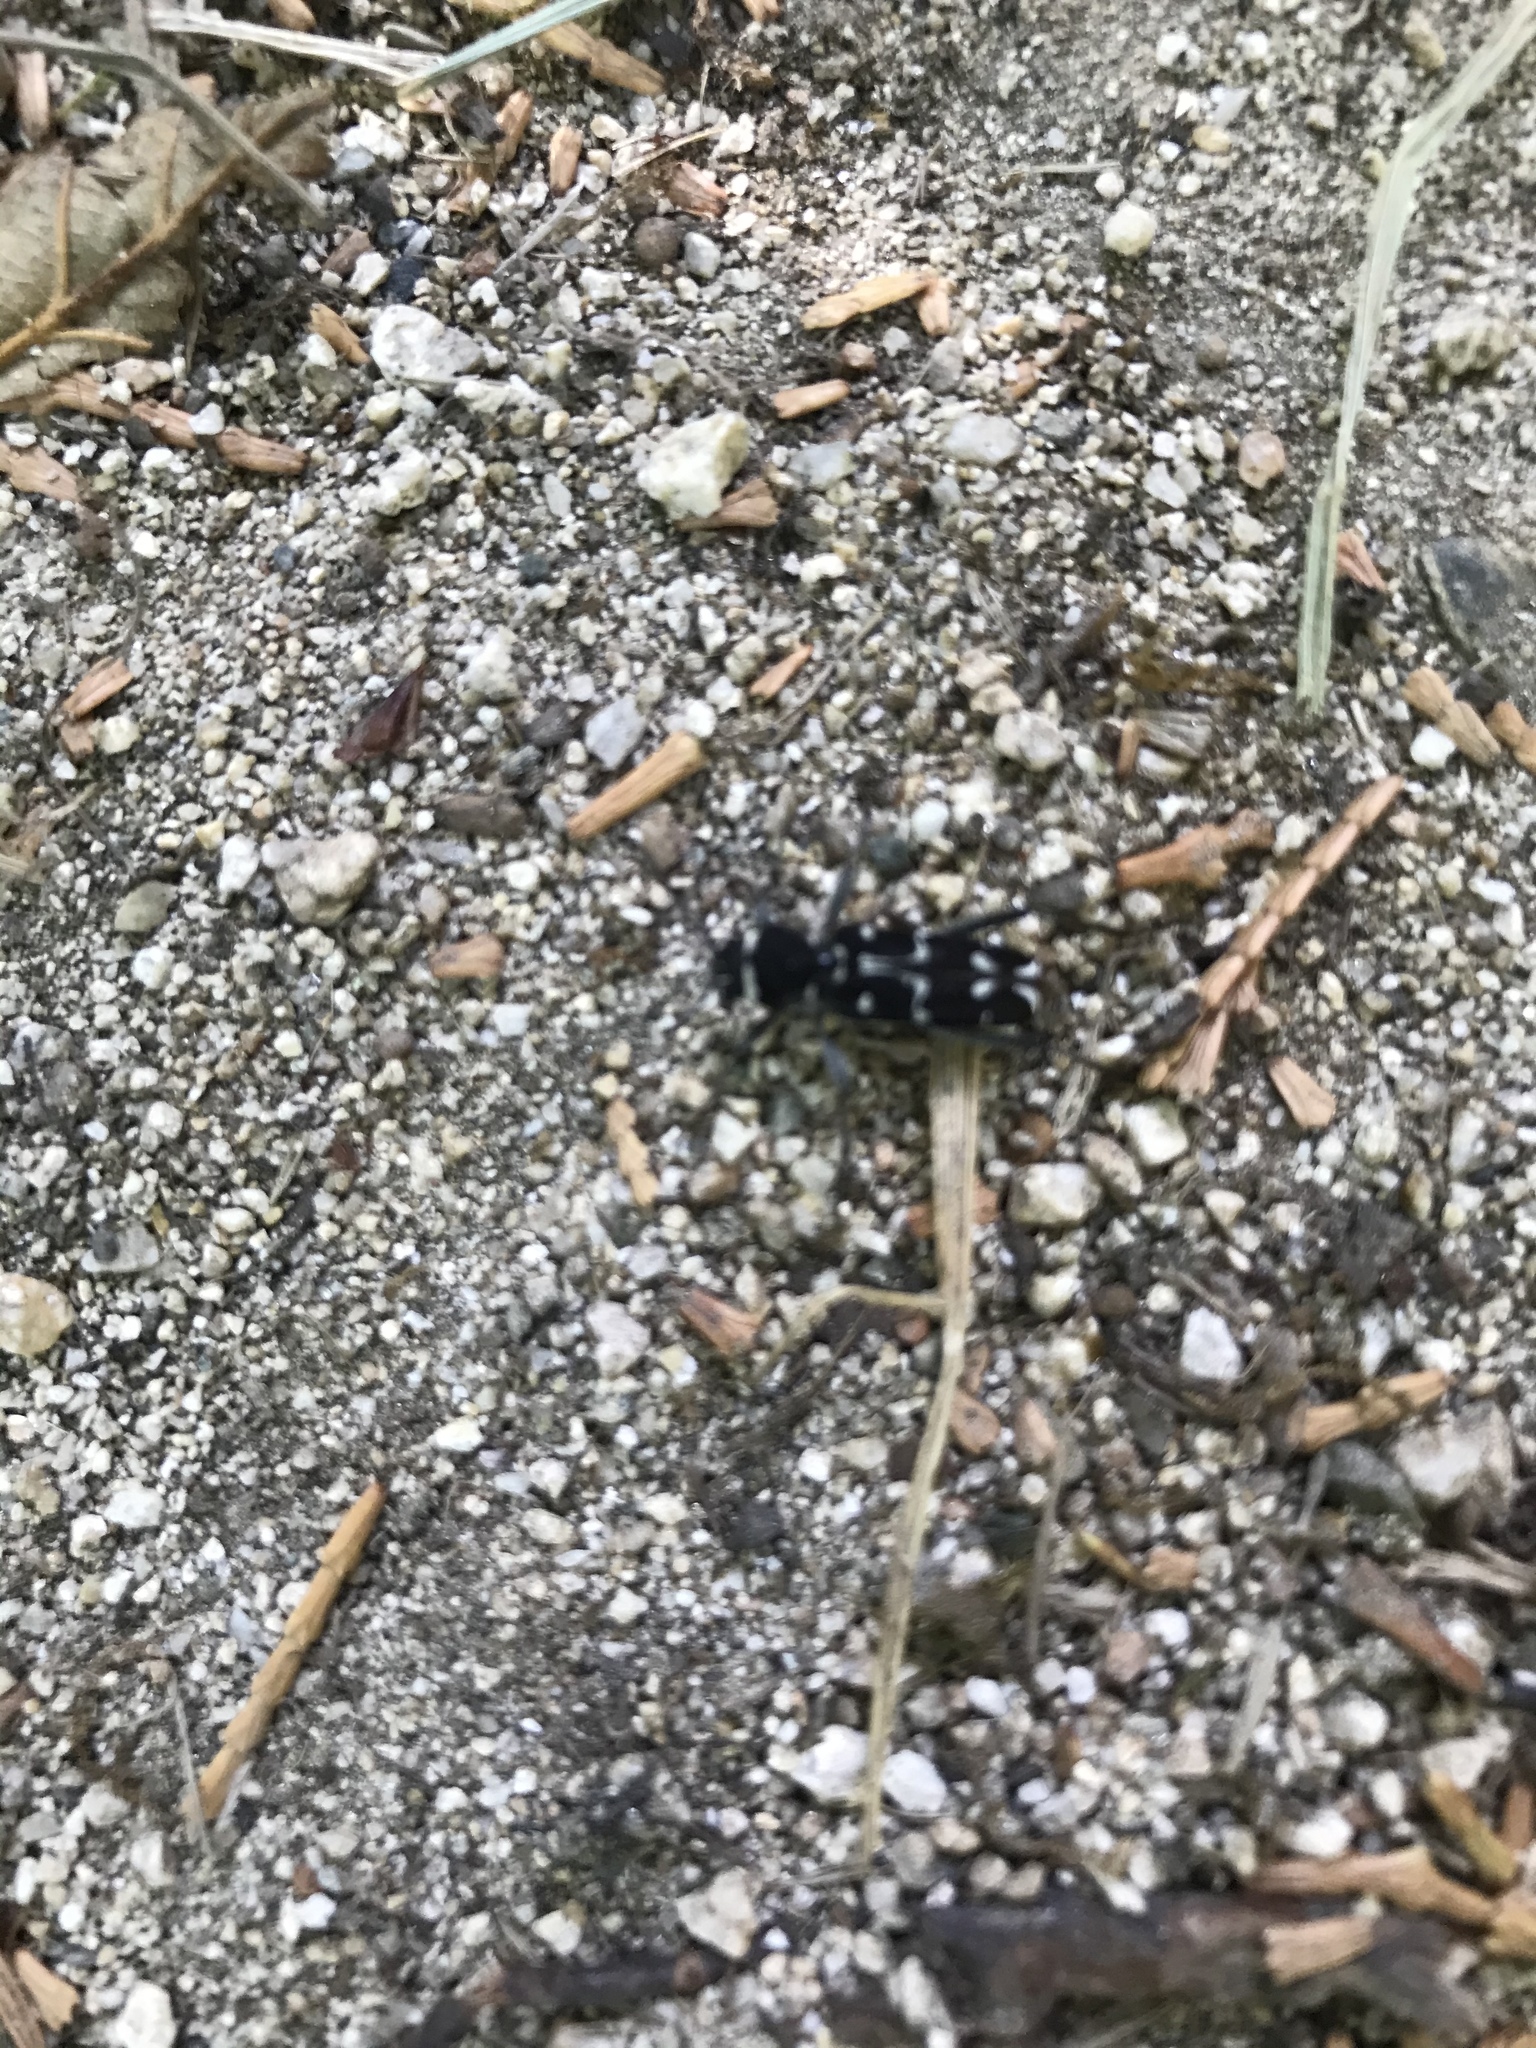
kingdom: Animalia
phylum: Arthropoda
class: Insecta
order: Coleoptera
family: Cerambycidae
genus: Xylotrechus
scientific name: Xylotrechus undulatus
